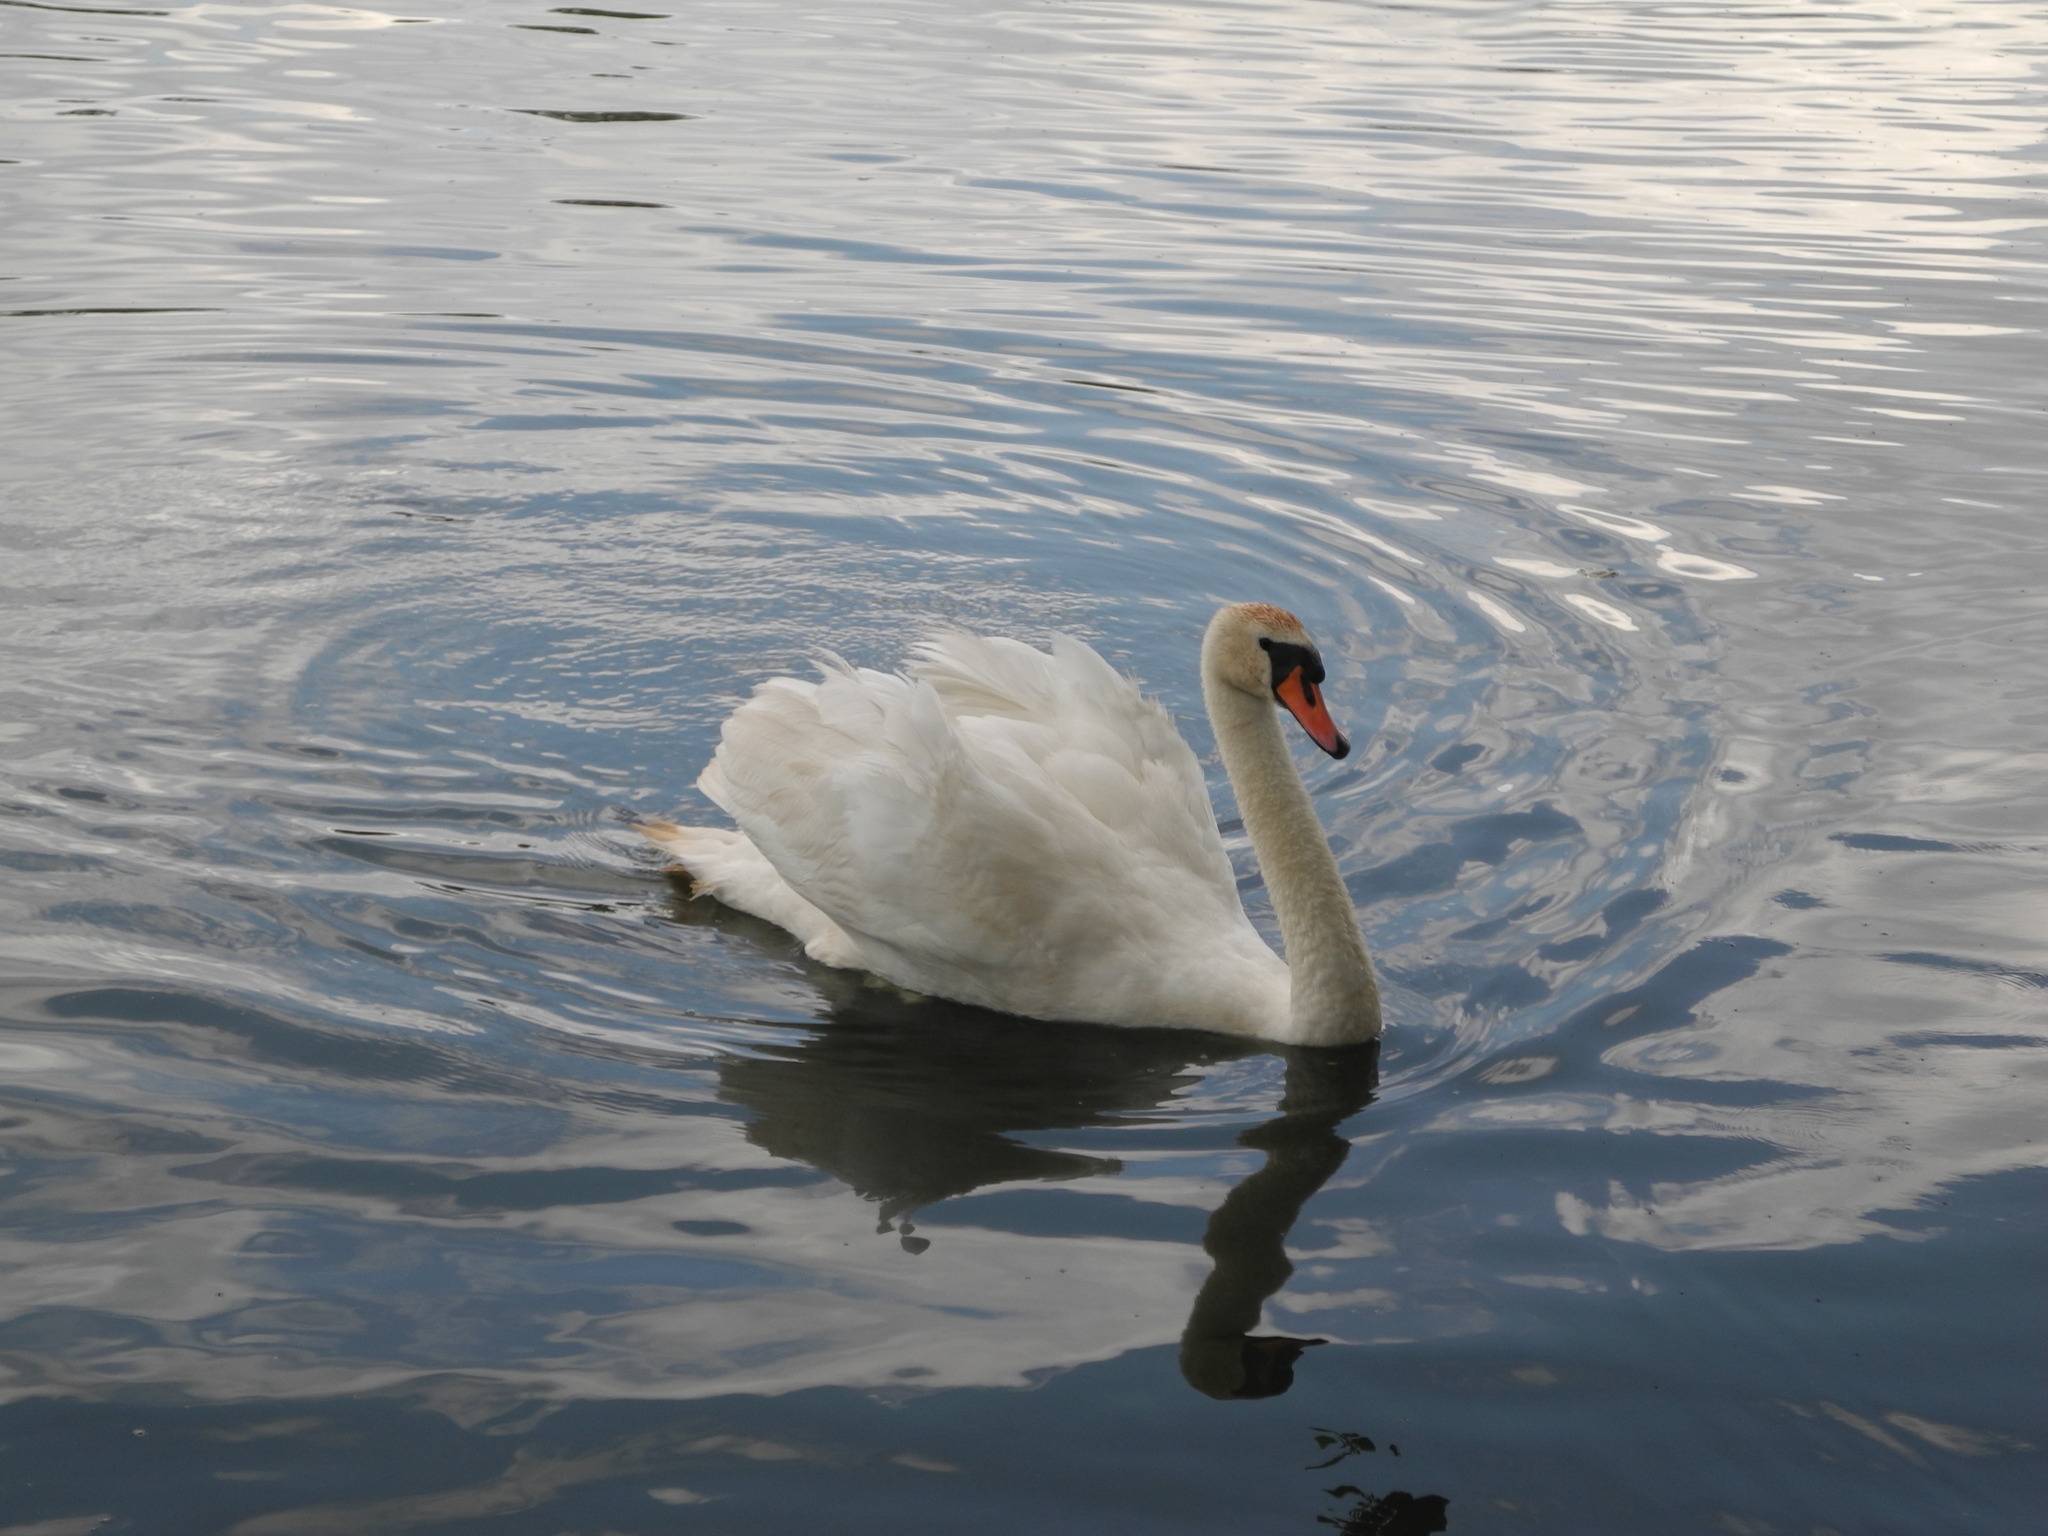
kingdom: Animalia
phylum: Chordata
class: Aves
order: Anseriformes
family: Anatidae
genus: Cygnus
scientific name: Cygnus olor
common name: Mute swan
